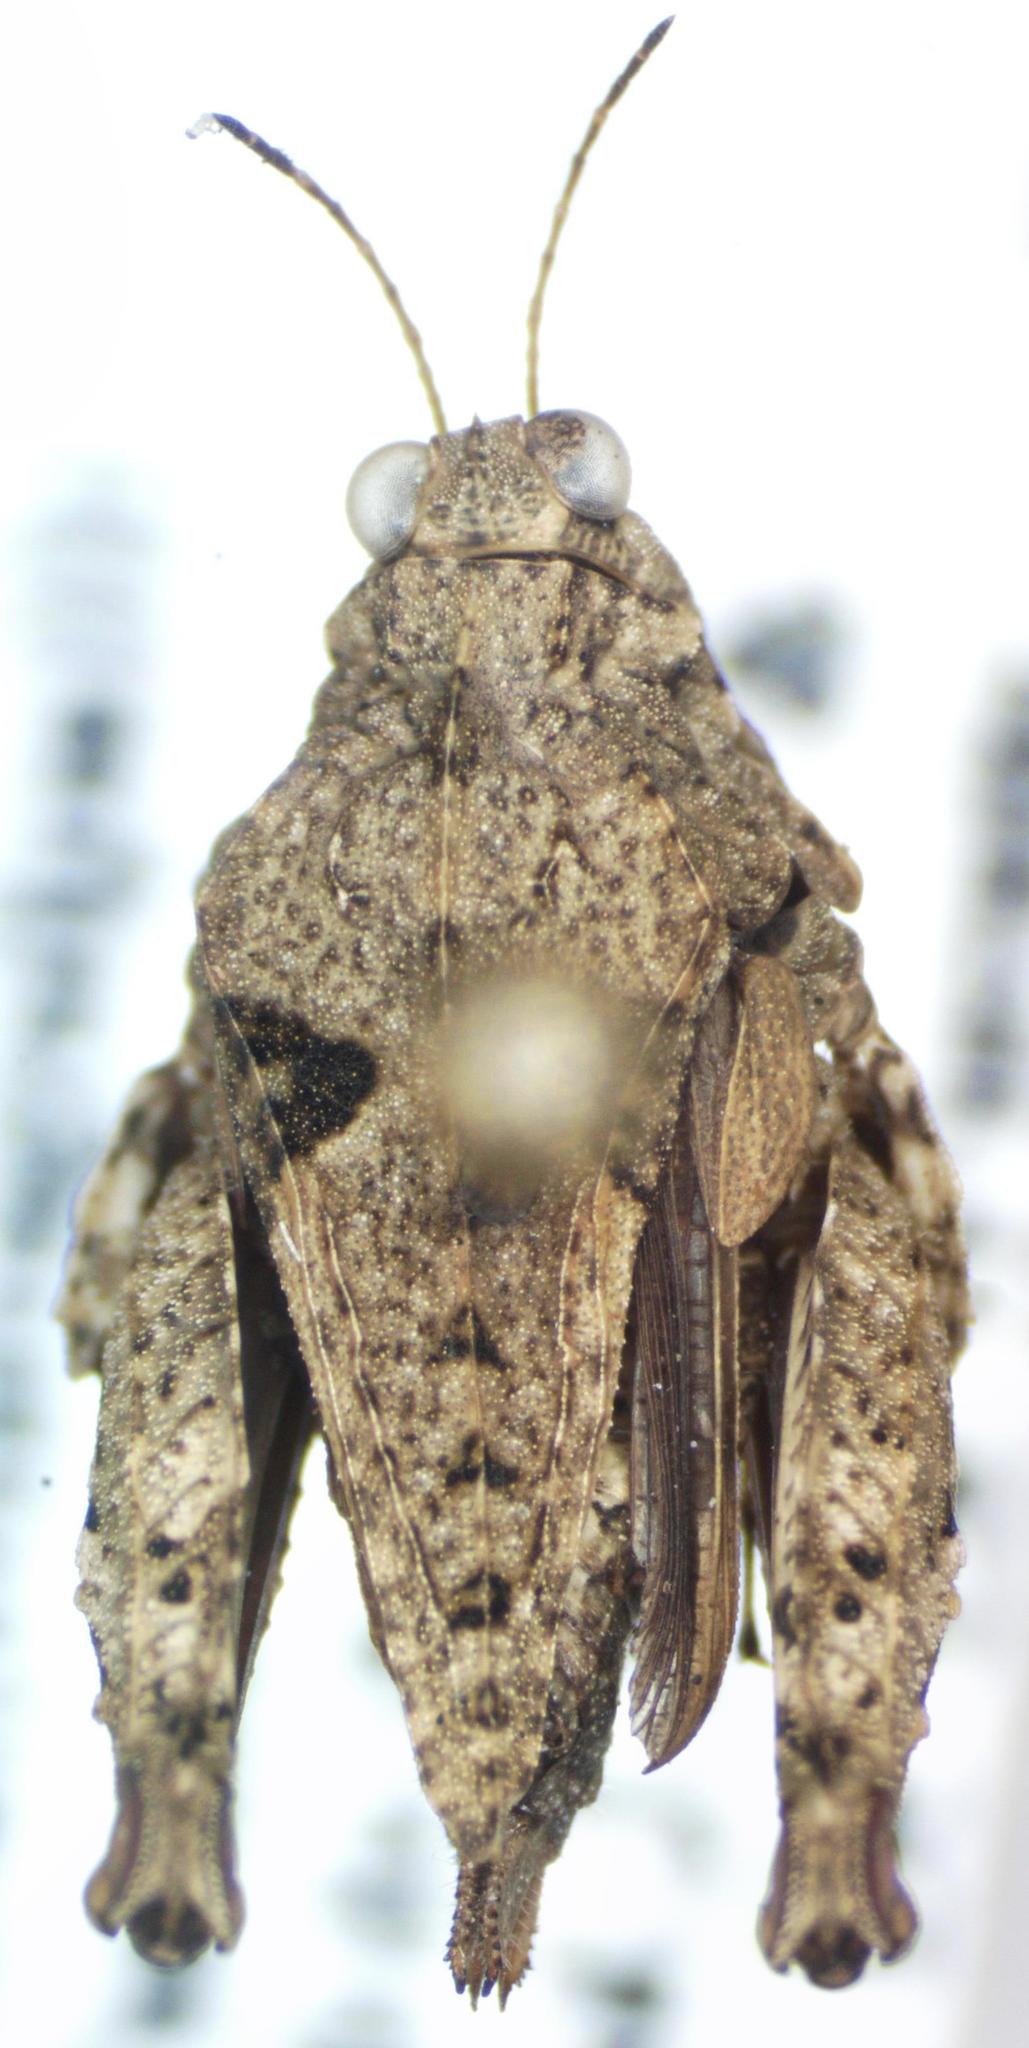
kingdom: Animalia
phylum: Arthropoda
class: Insecta
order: Orthoptera
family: Tetrigidae
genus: Paratettix
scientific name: Paratettix mexicanus
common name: Mexican pygmy grasshopper
